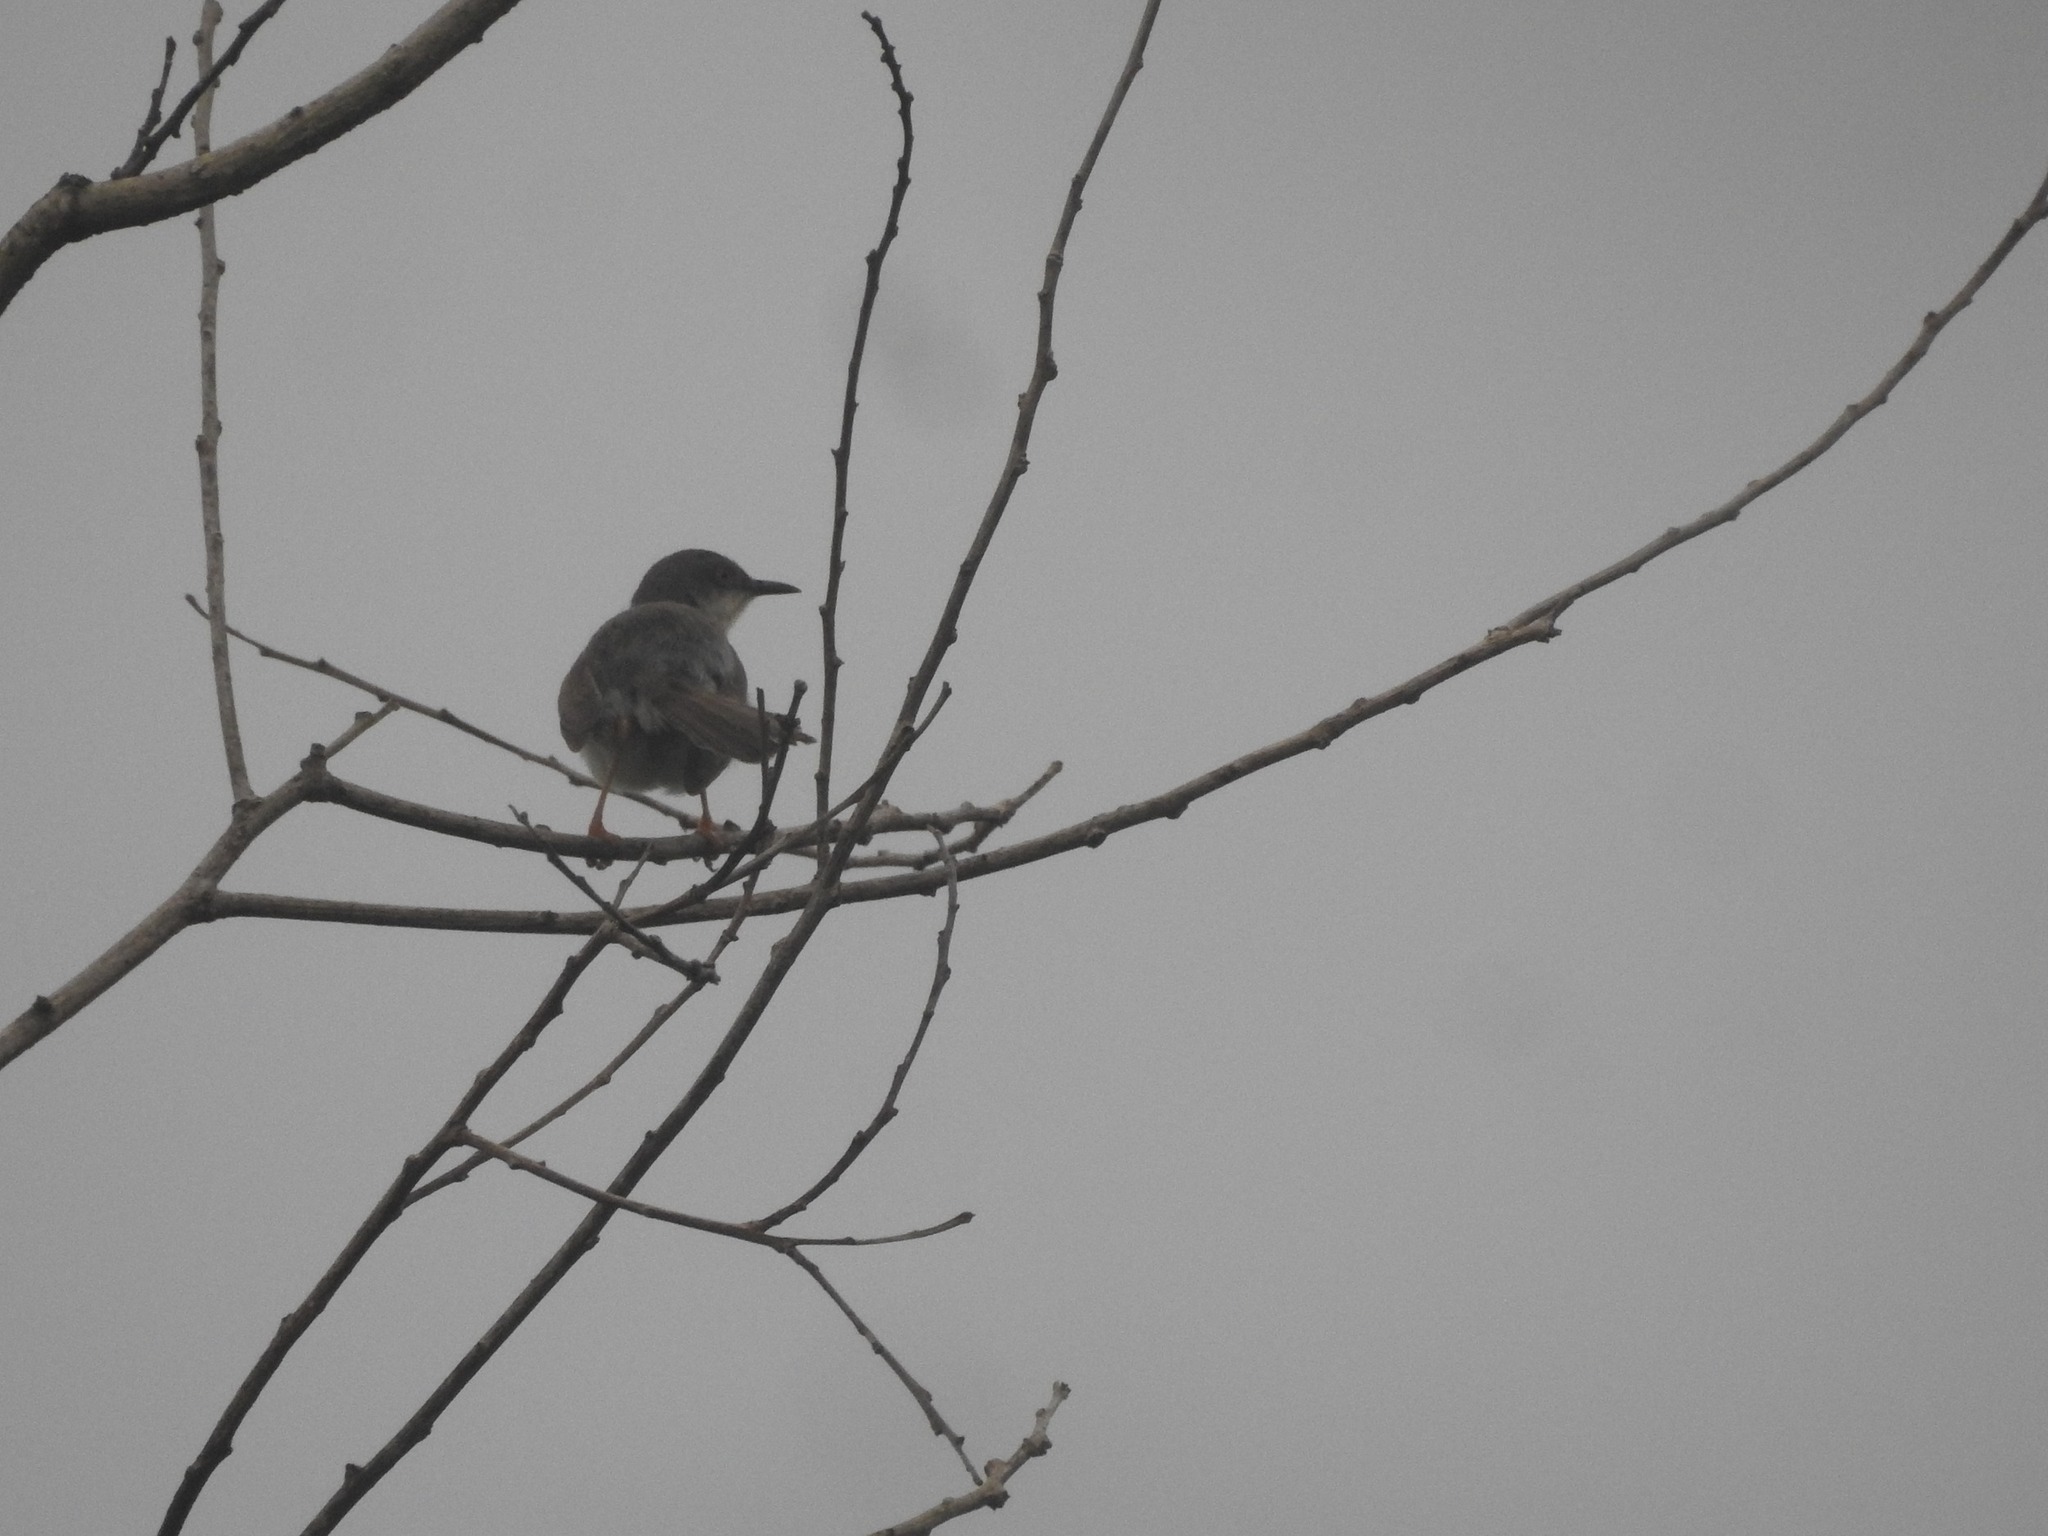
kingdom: Animalia
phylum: Chordata
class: Aves
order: Passeriformes
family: Cisticolidae
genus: Prinia
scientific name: Prinia hodgsonii
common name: Grey-breasted prinia
